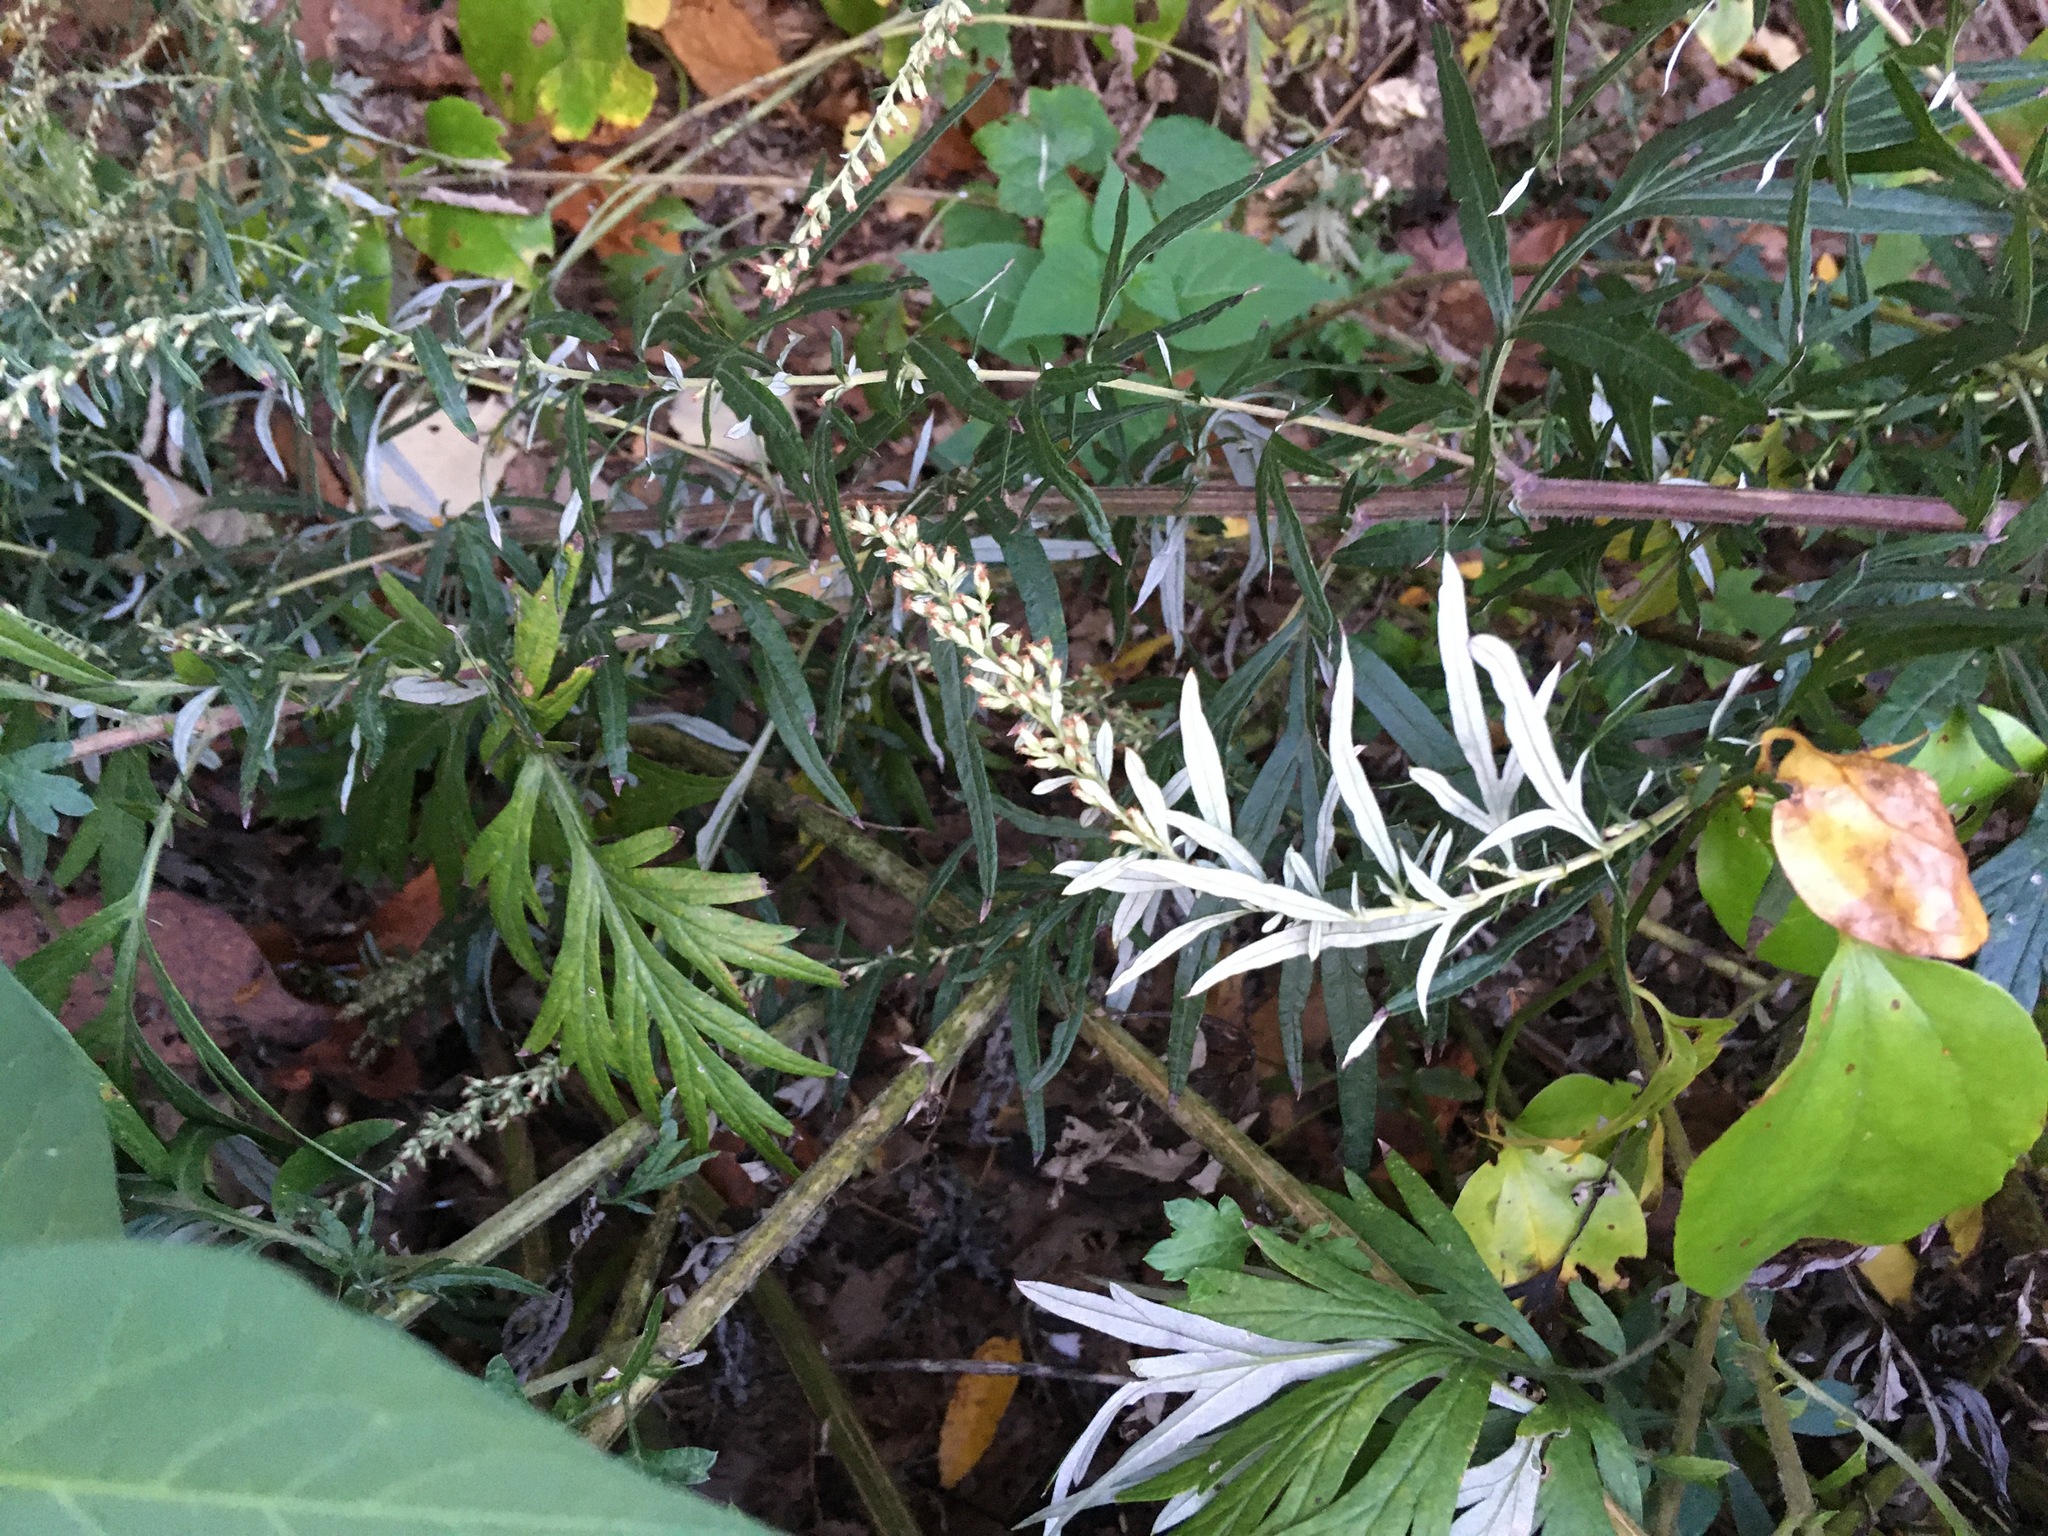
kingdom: Plantae
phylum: Tracheophyta
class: Magnoliopsida
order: Asterales
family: Asteraceae
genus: Artemisia
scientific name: Artemisia vulgaris
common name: Mugwort
